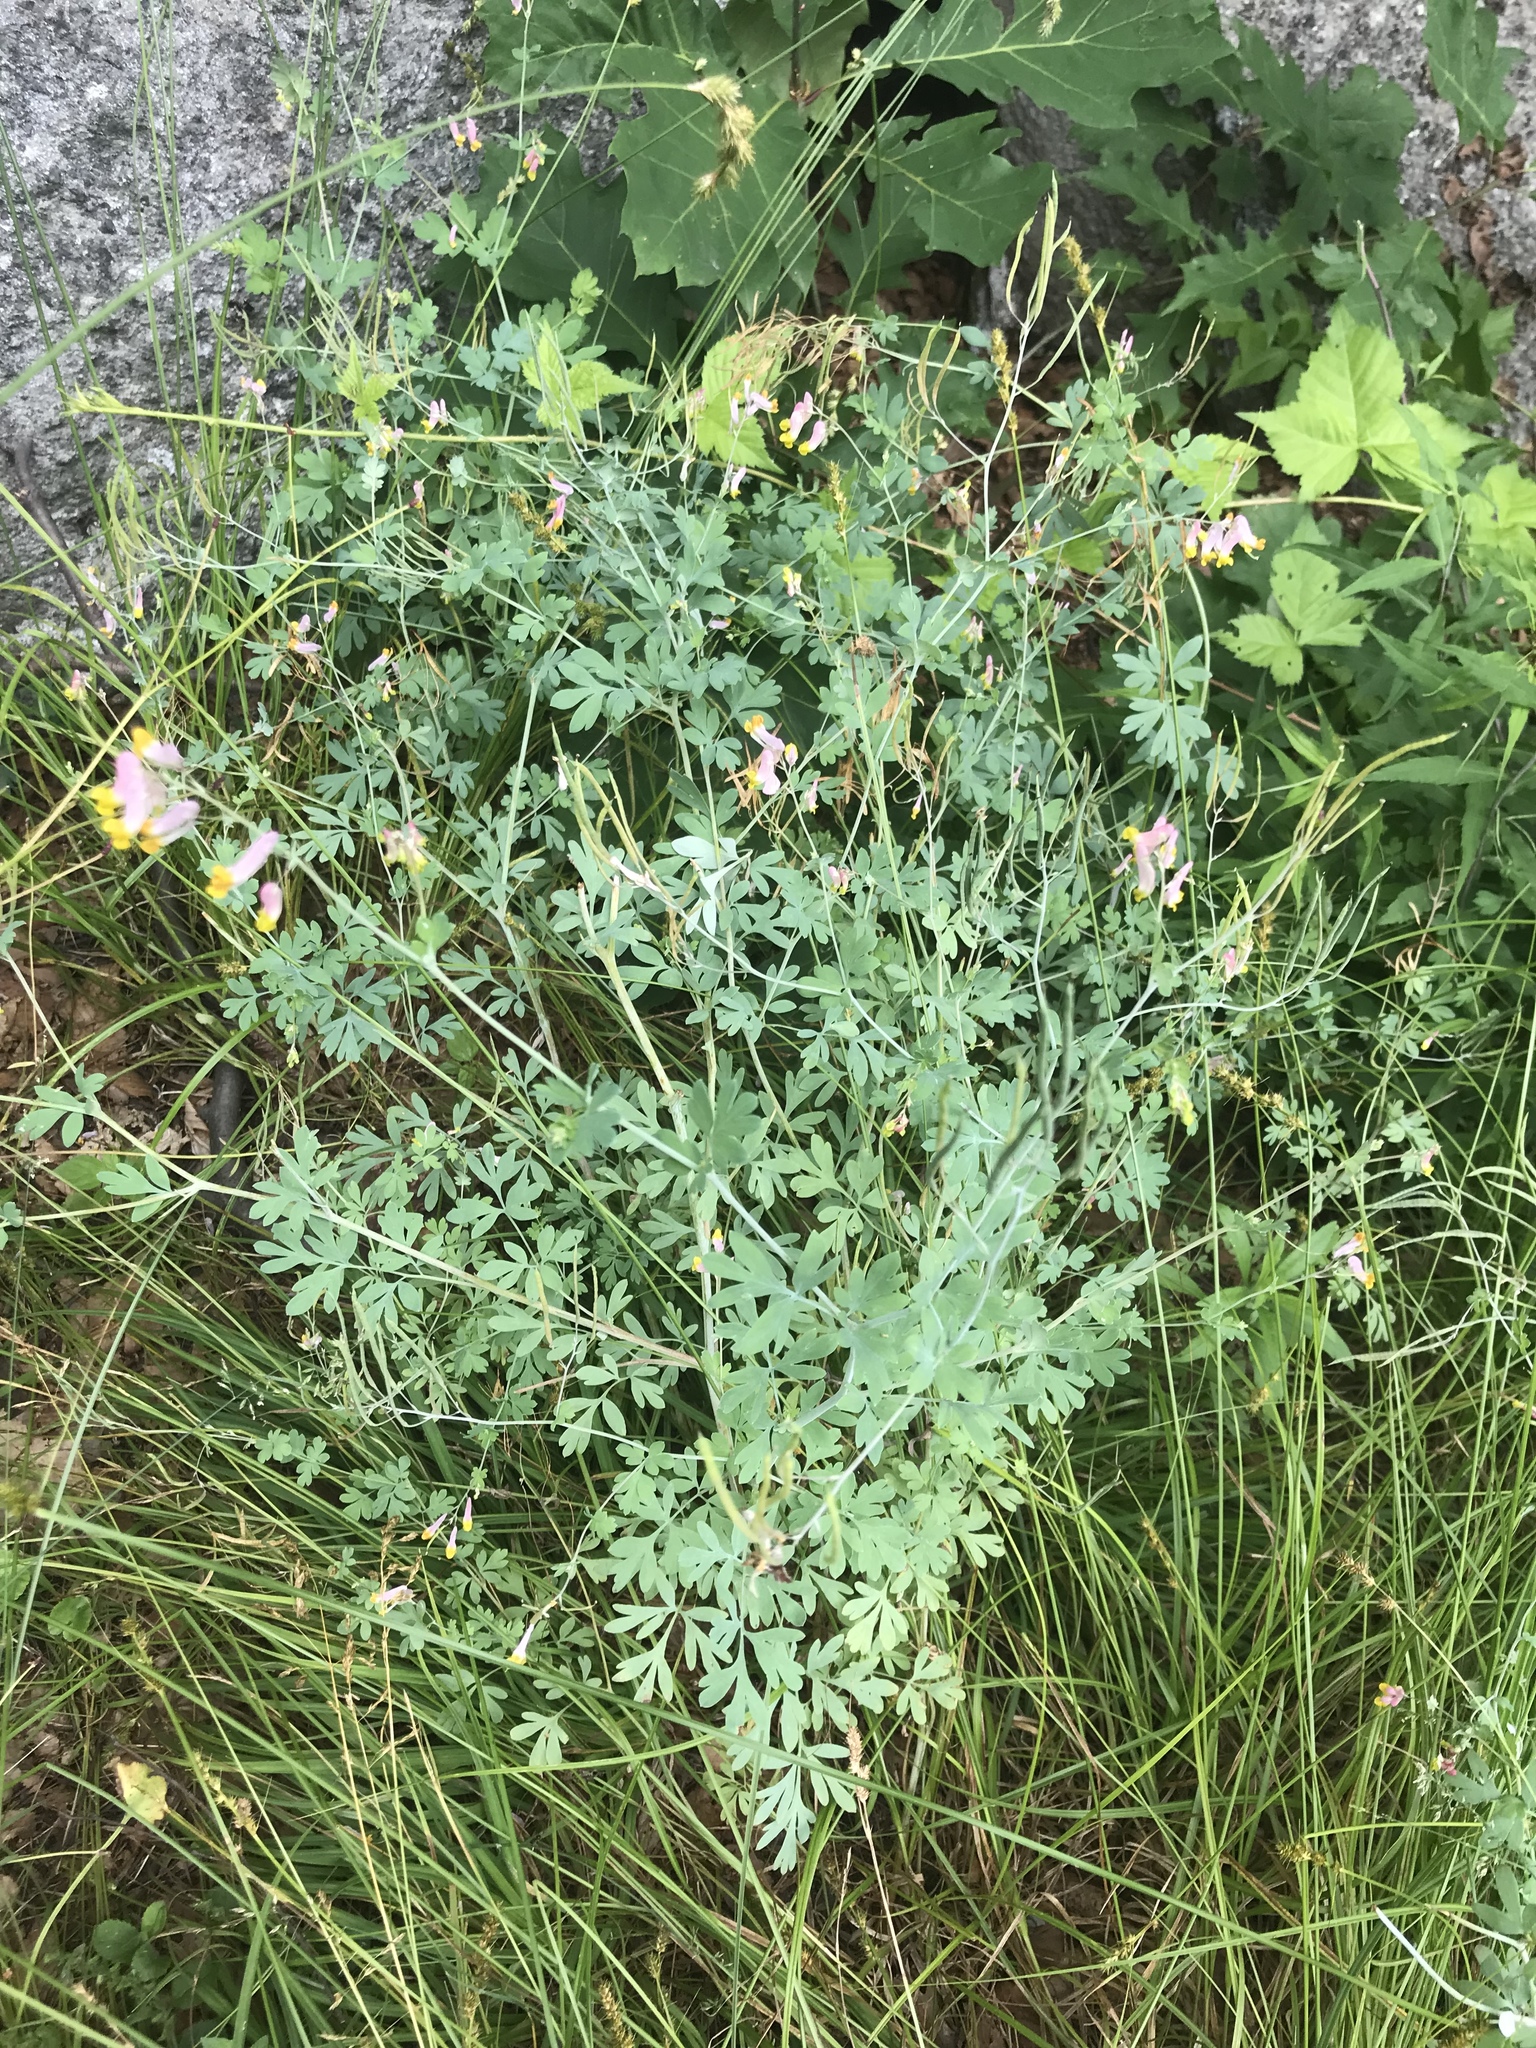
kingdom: Plantae
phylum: Tracheophyta
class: Magnoliopsida
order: Ranunculales
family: Papaveraceae
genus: Capnoides
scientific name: Capnoides sempervirens
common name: Rock harlequin
